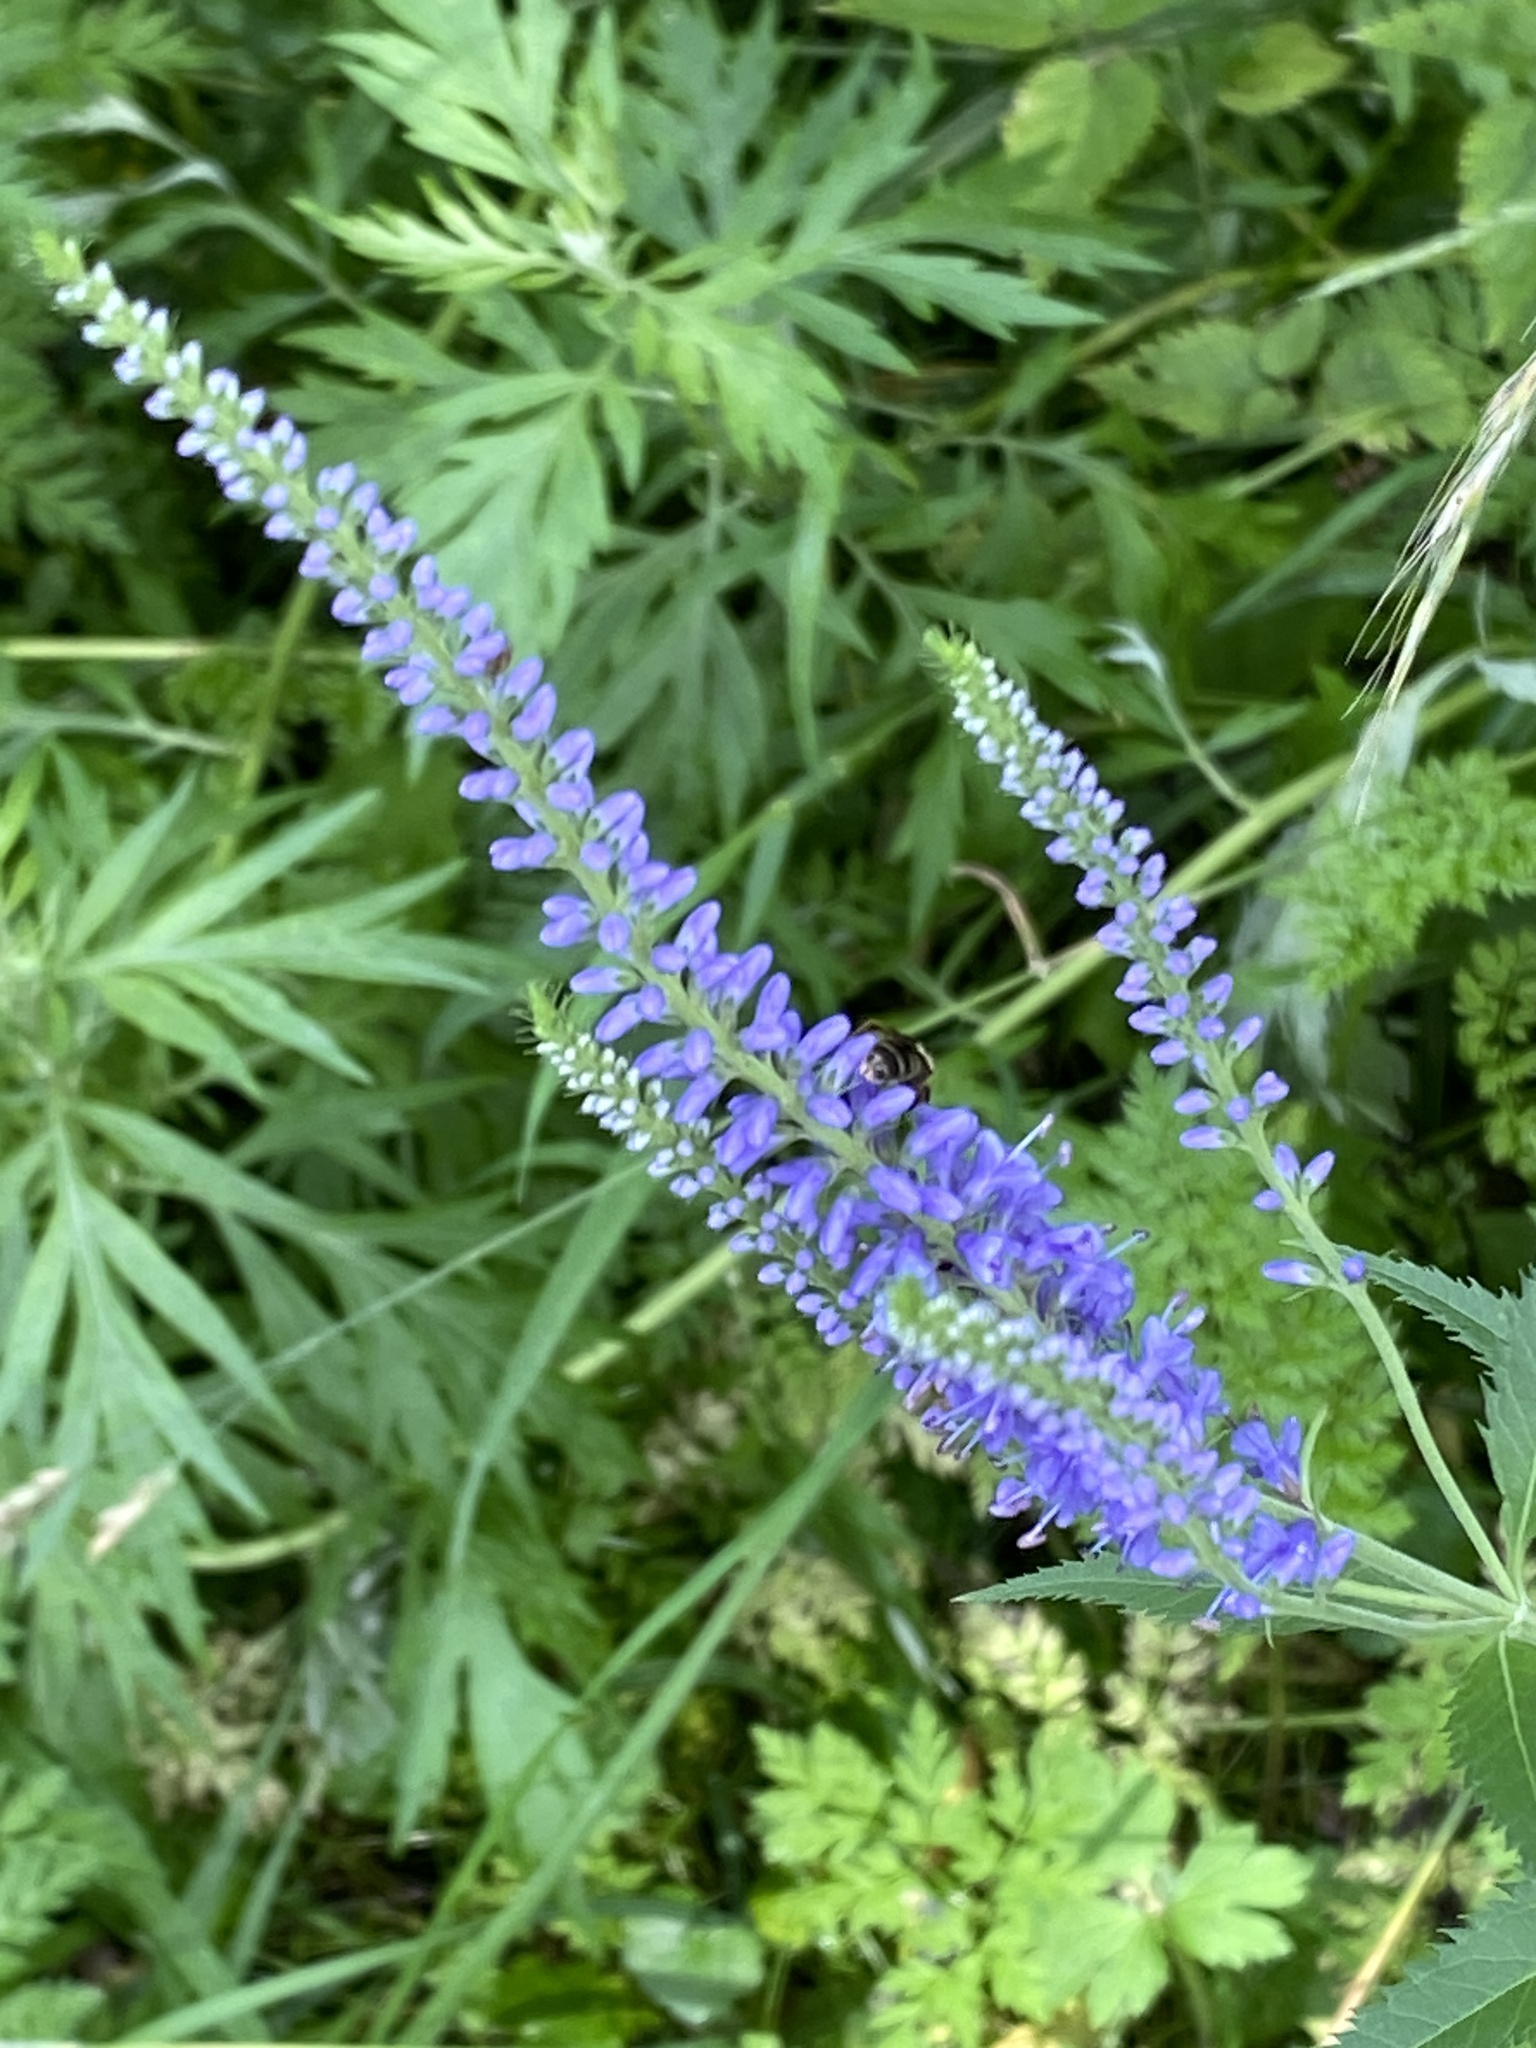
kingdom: Plantae
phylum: Tracheophyta
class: Magnoliopsida
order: Lamiales
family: Plantaginaceae
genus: Veronica
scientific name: Veronica longifolia
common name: Garden speedwell
